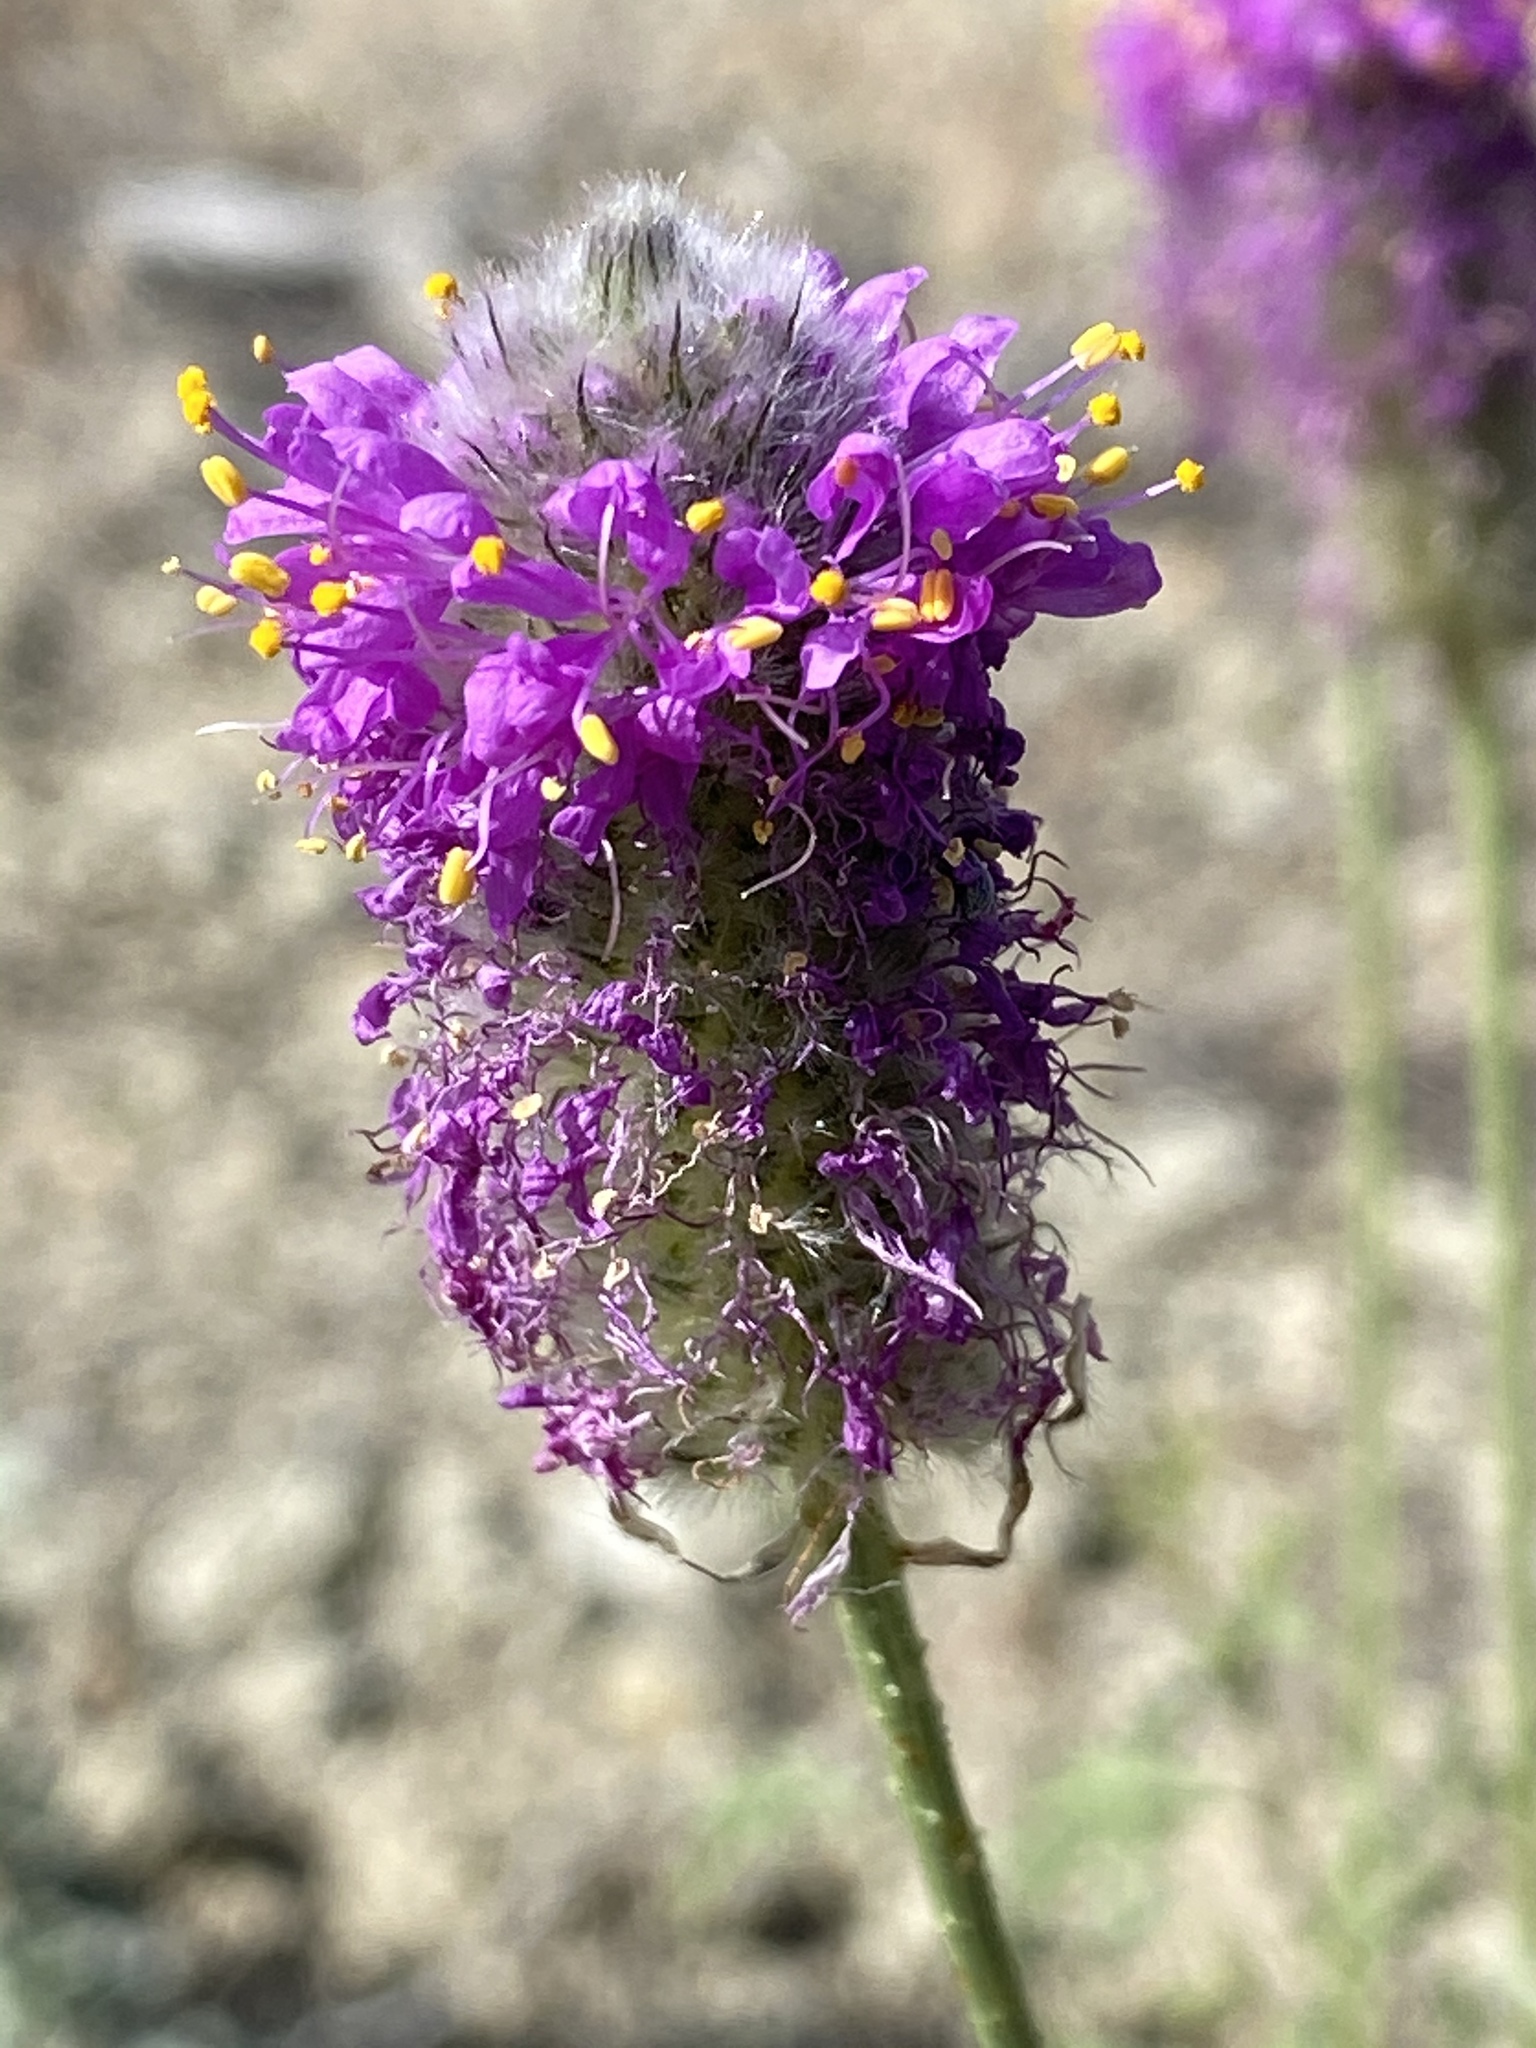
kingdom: Plantae
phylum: Tracheophyta
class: Magnoliopsida
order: Fabales
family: Fabaceae
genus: Dalea
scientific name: Dalea ornata
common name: Blue mountain prairie-clover
